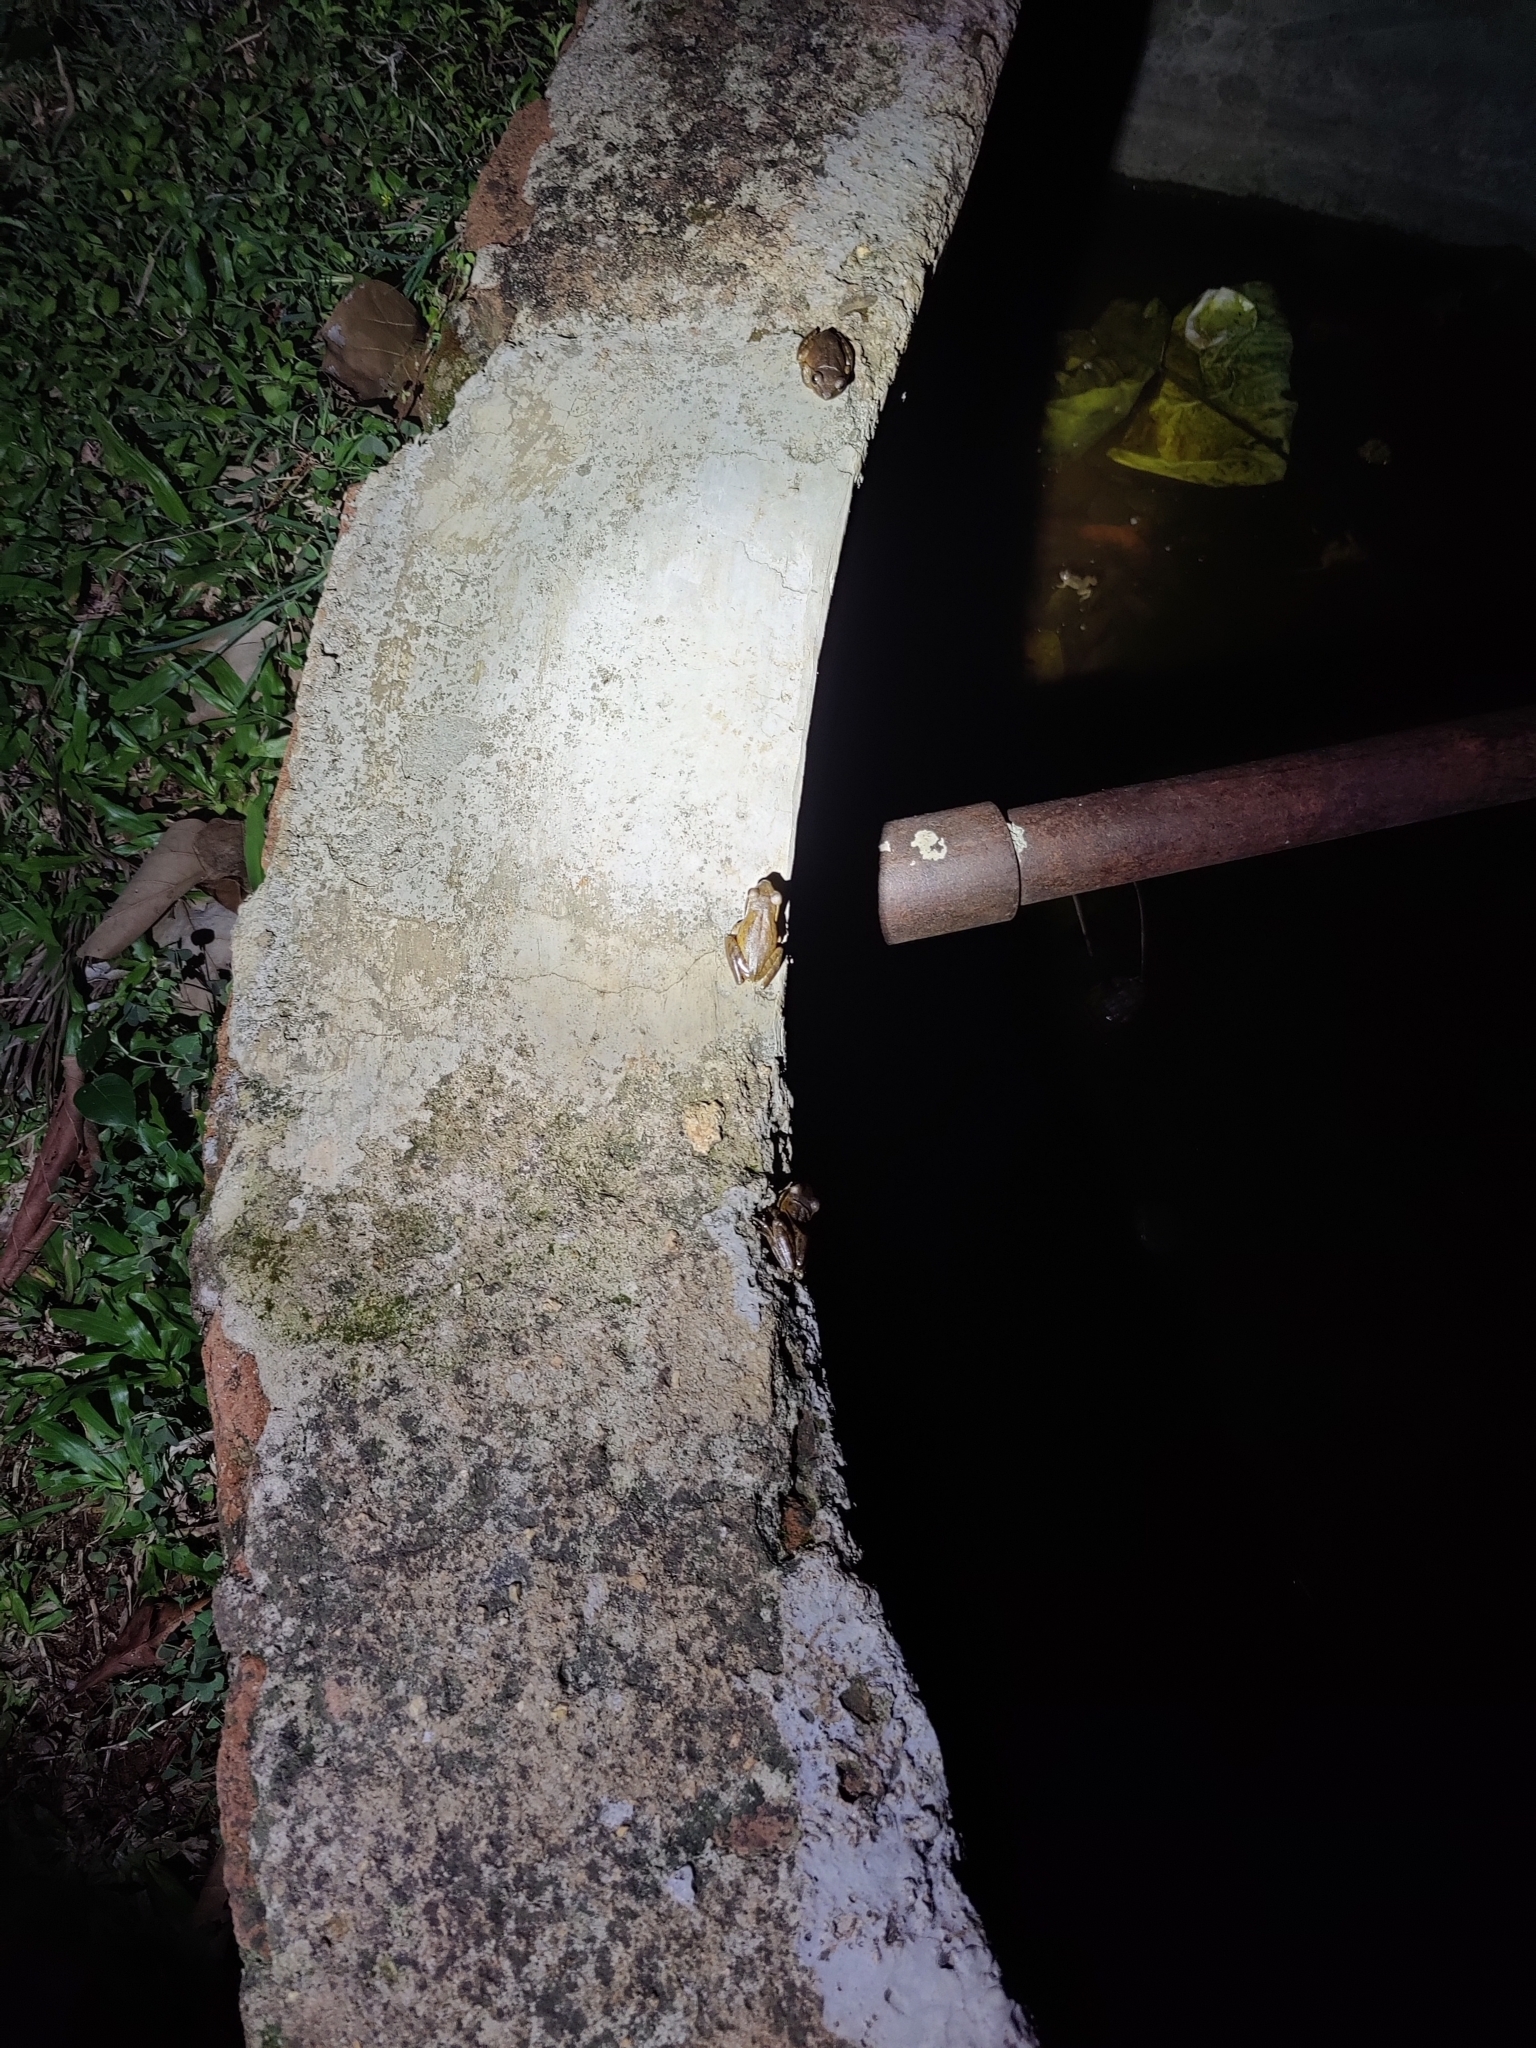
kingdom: Animalia
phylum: Chordata
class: Amphibia
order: Anura
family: Rhacophoridae
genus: Polypedates
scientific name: Polypedates maculatus
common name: Himalayan tree frog
